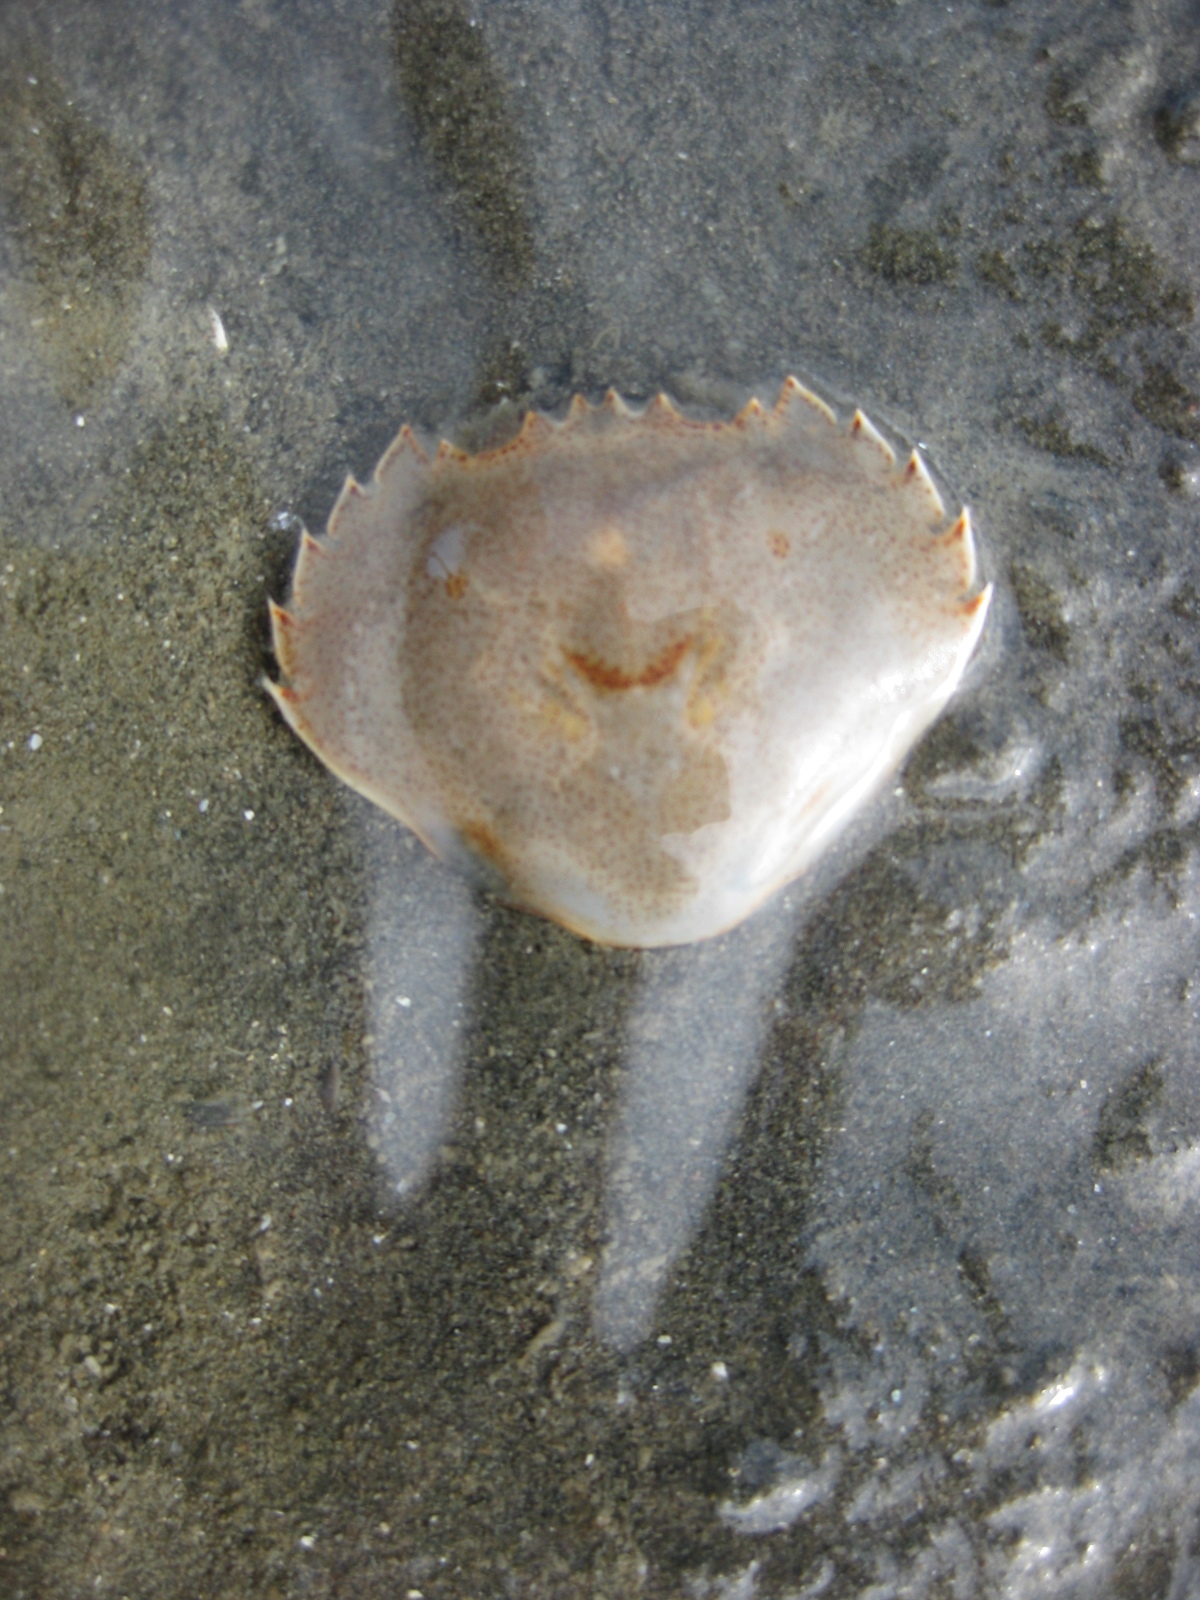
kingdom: Animalia
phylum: Arthropoda
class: Malacostraca
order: Decapoda
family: Ovalipidae
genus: Ovalipes
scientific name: Ovalipes catharus
